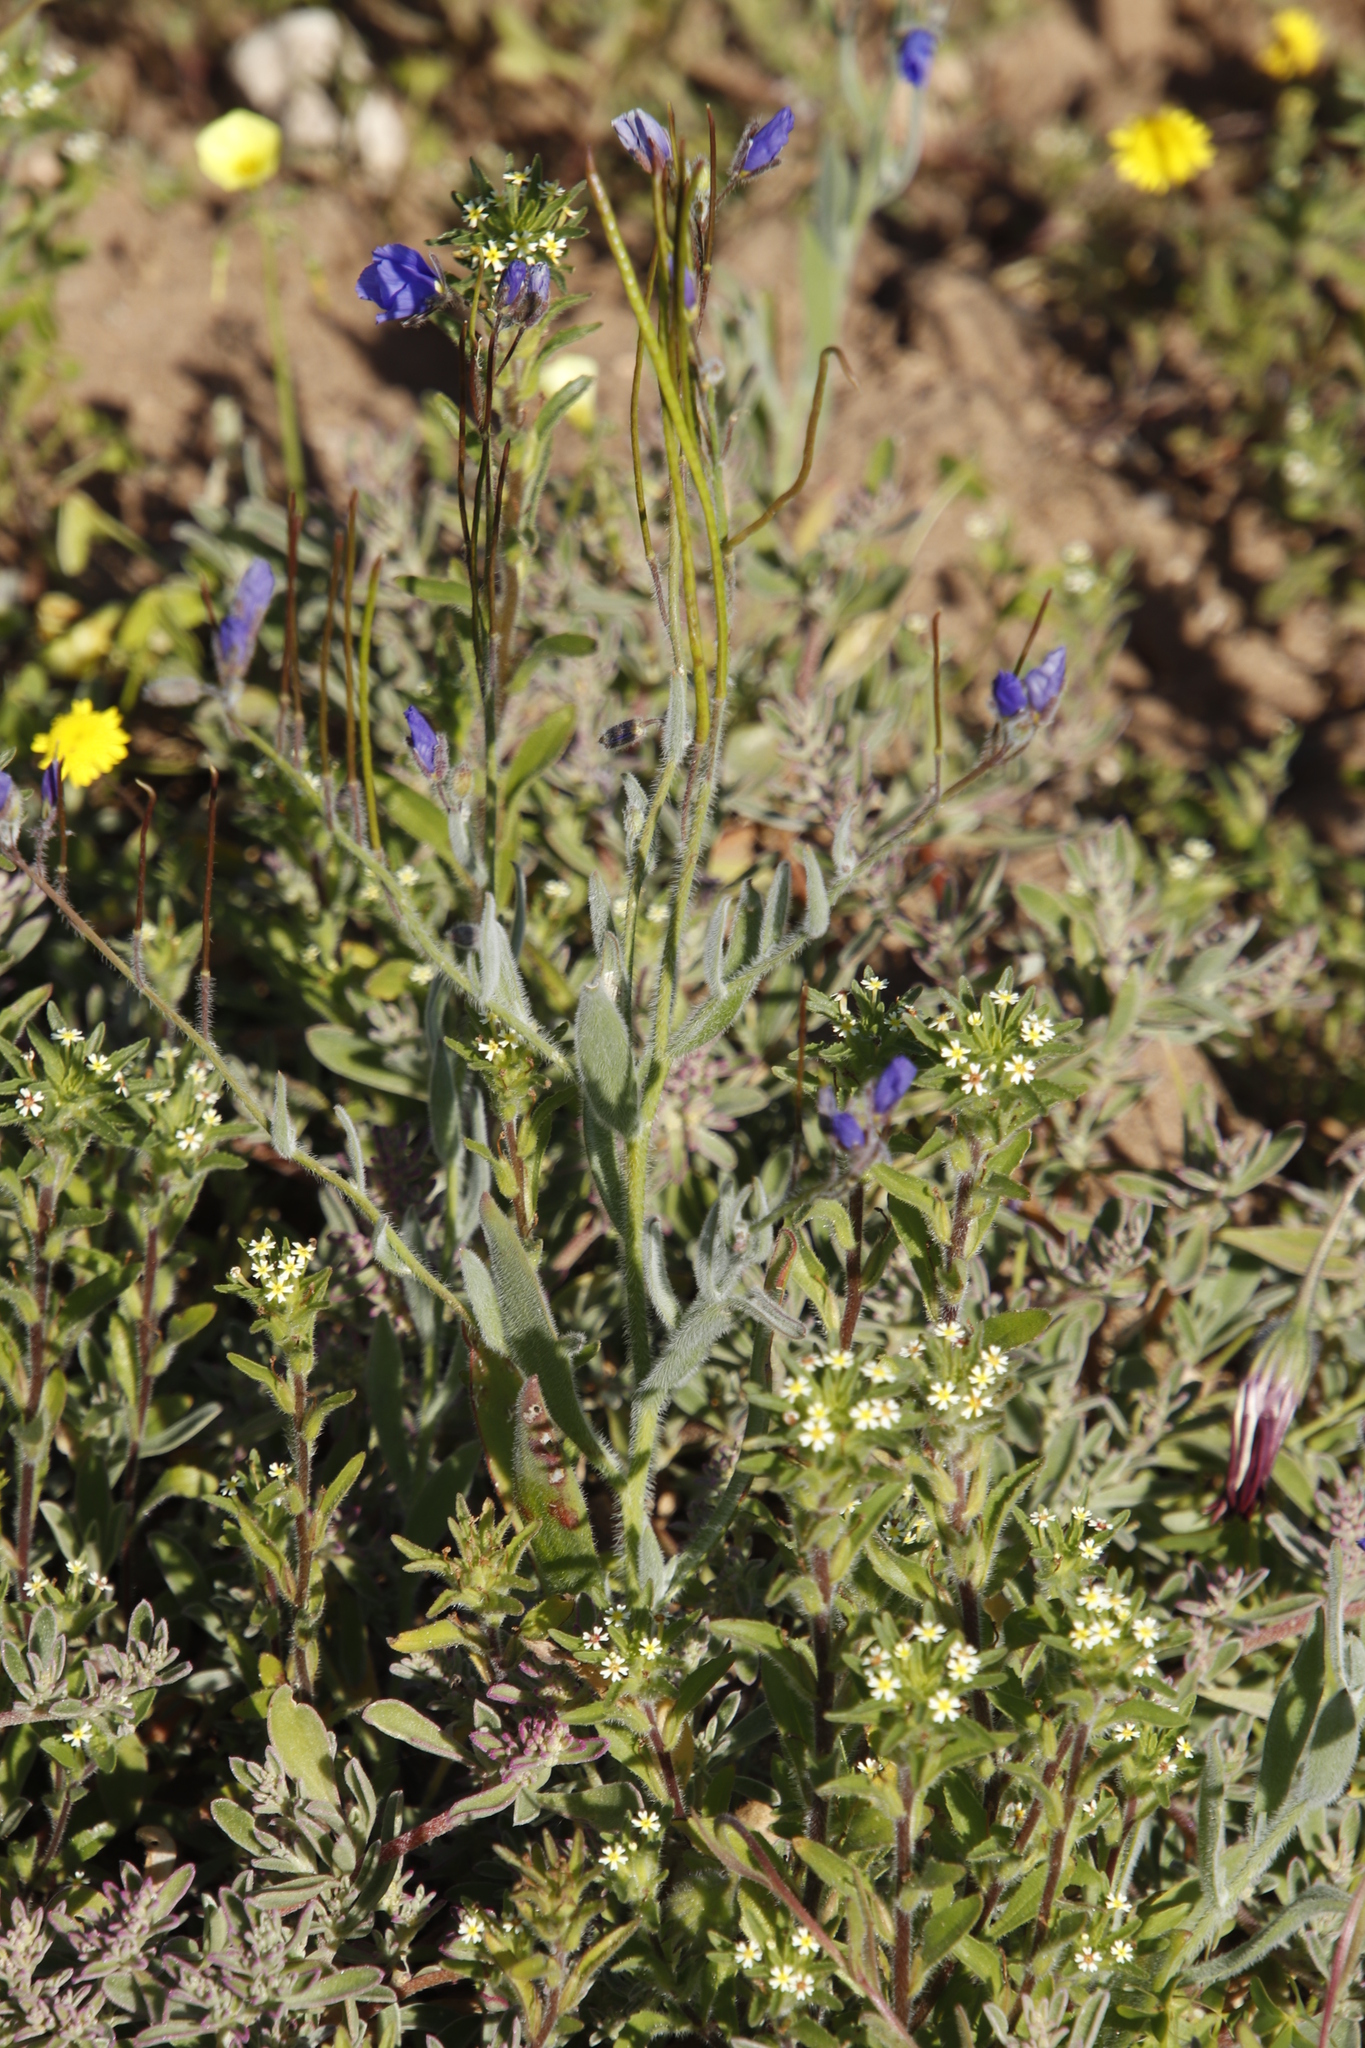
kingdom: Plantae
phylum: Tracheophyta
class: Magnoliopsida
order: Brassicales
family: Brassicaceae
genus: Heliophila
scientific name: Heliophila africana
